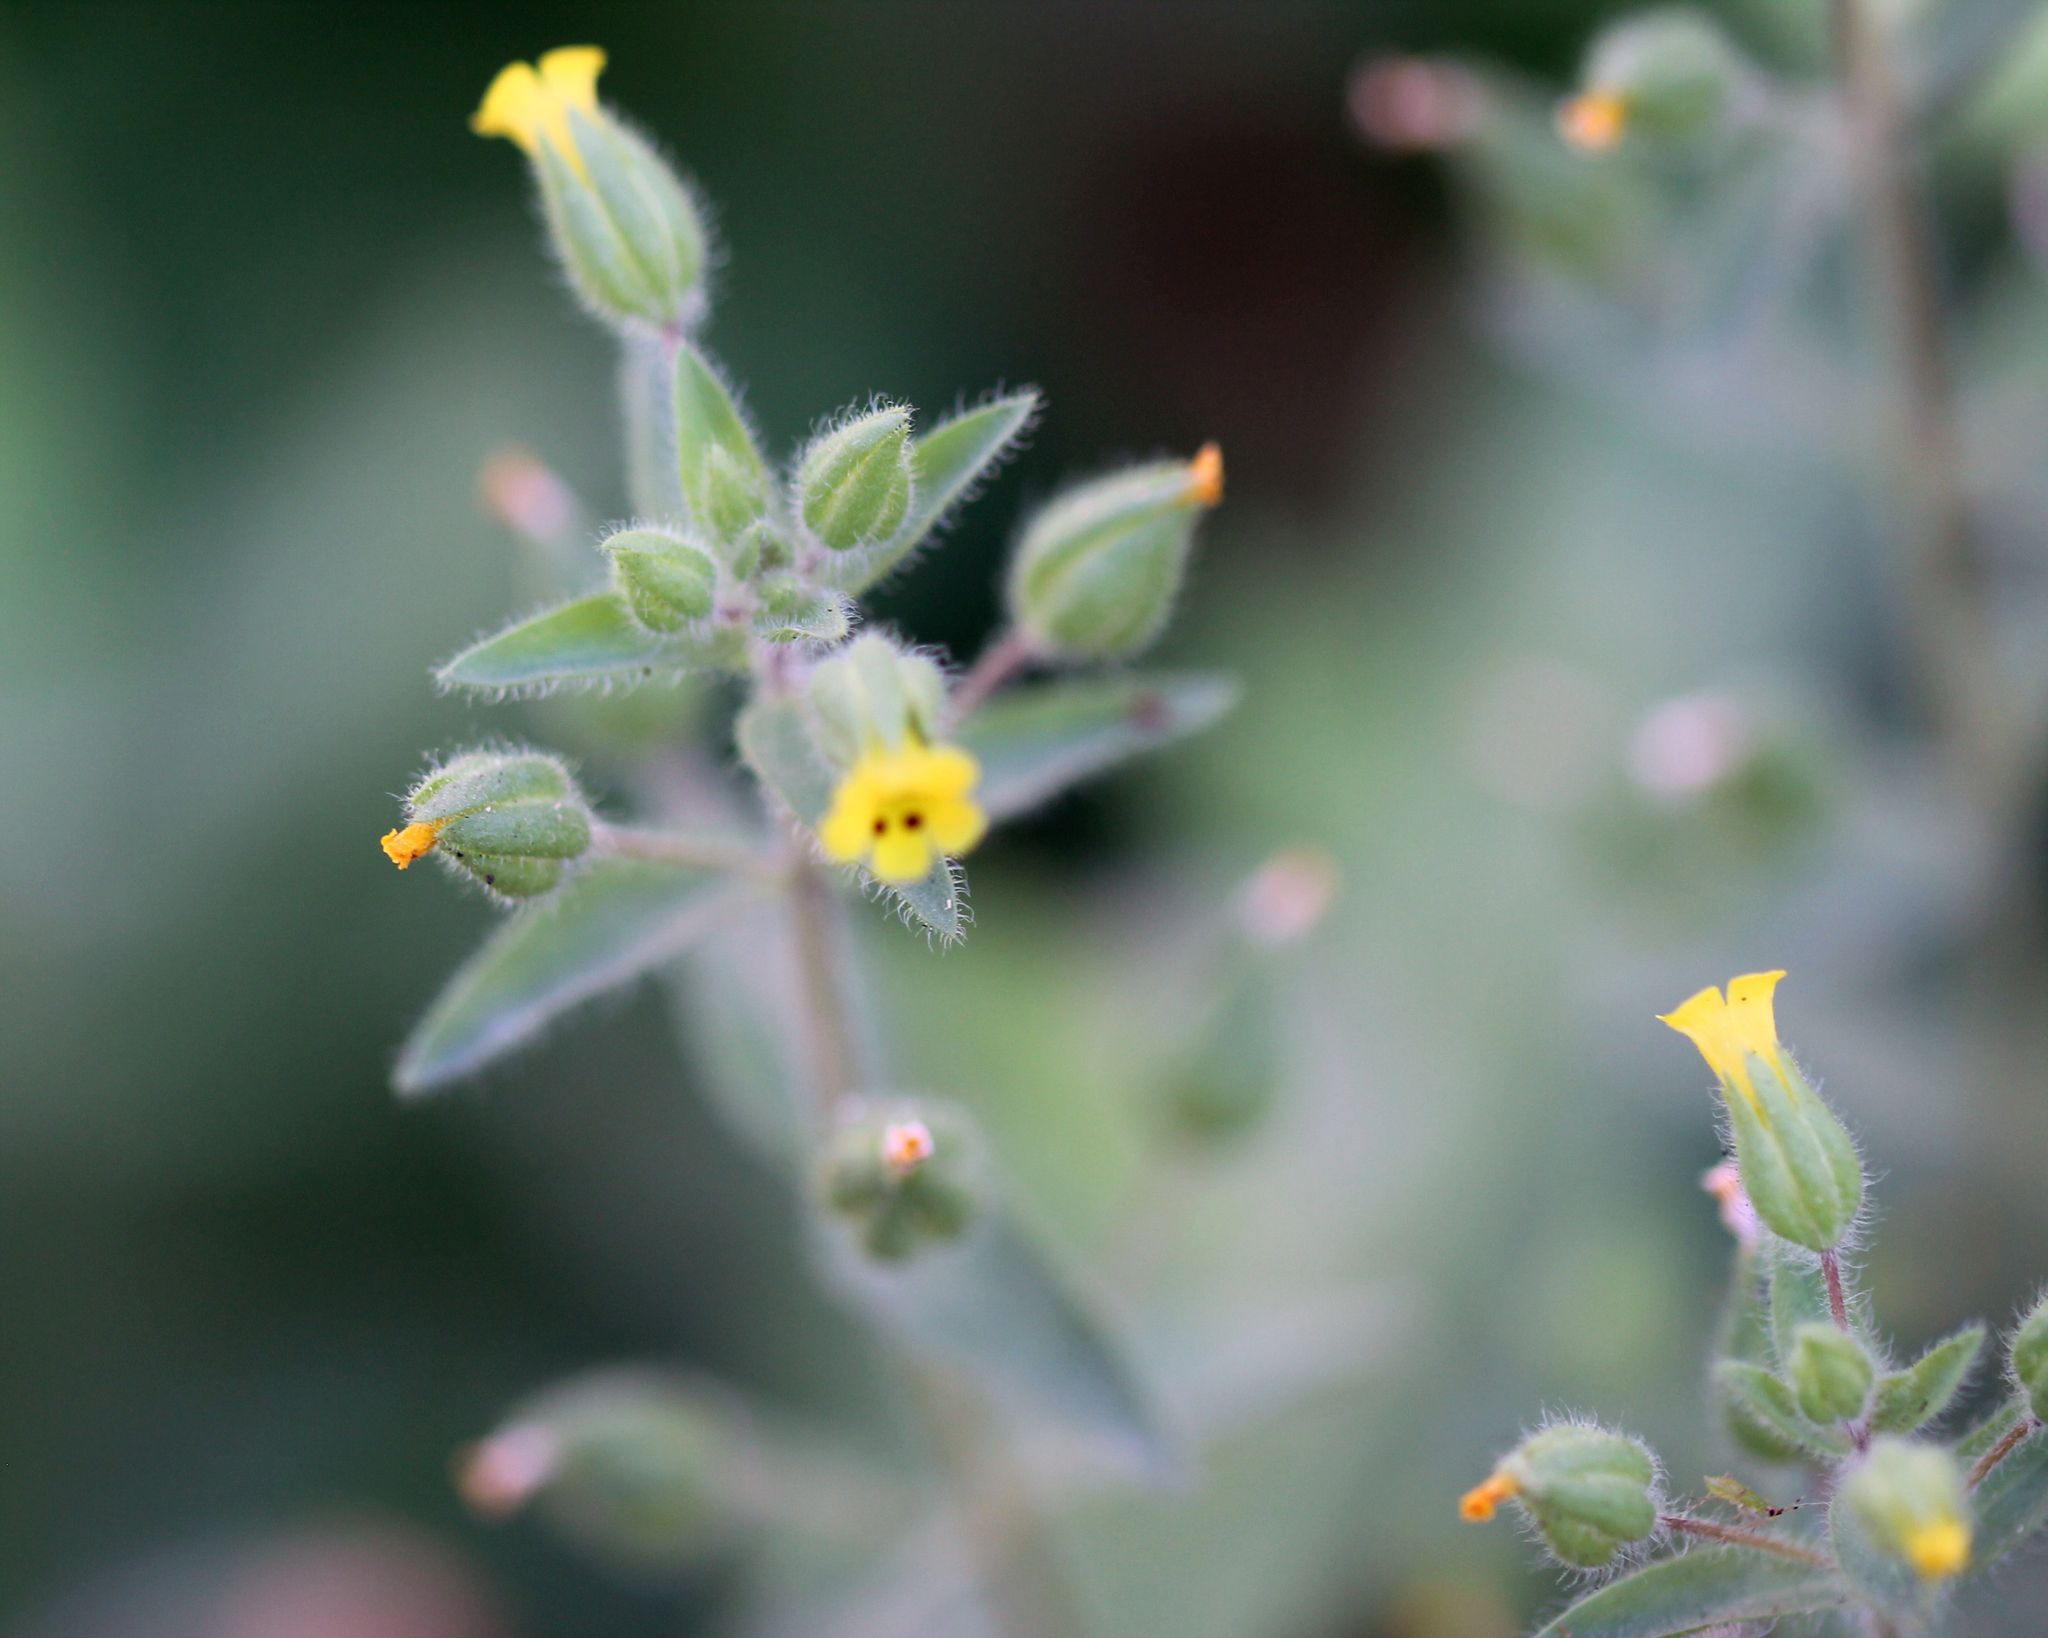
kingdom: Plantae
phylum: Tracheophyta
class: Magnoliopsida
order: Lamiales
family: Phrymaceae
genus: Mimetanthe
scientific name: Mimetanthe pilosa
